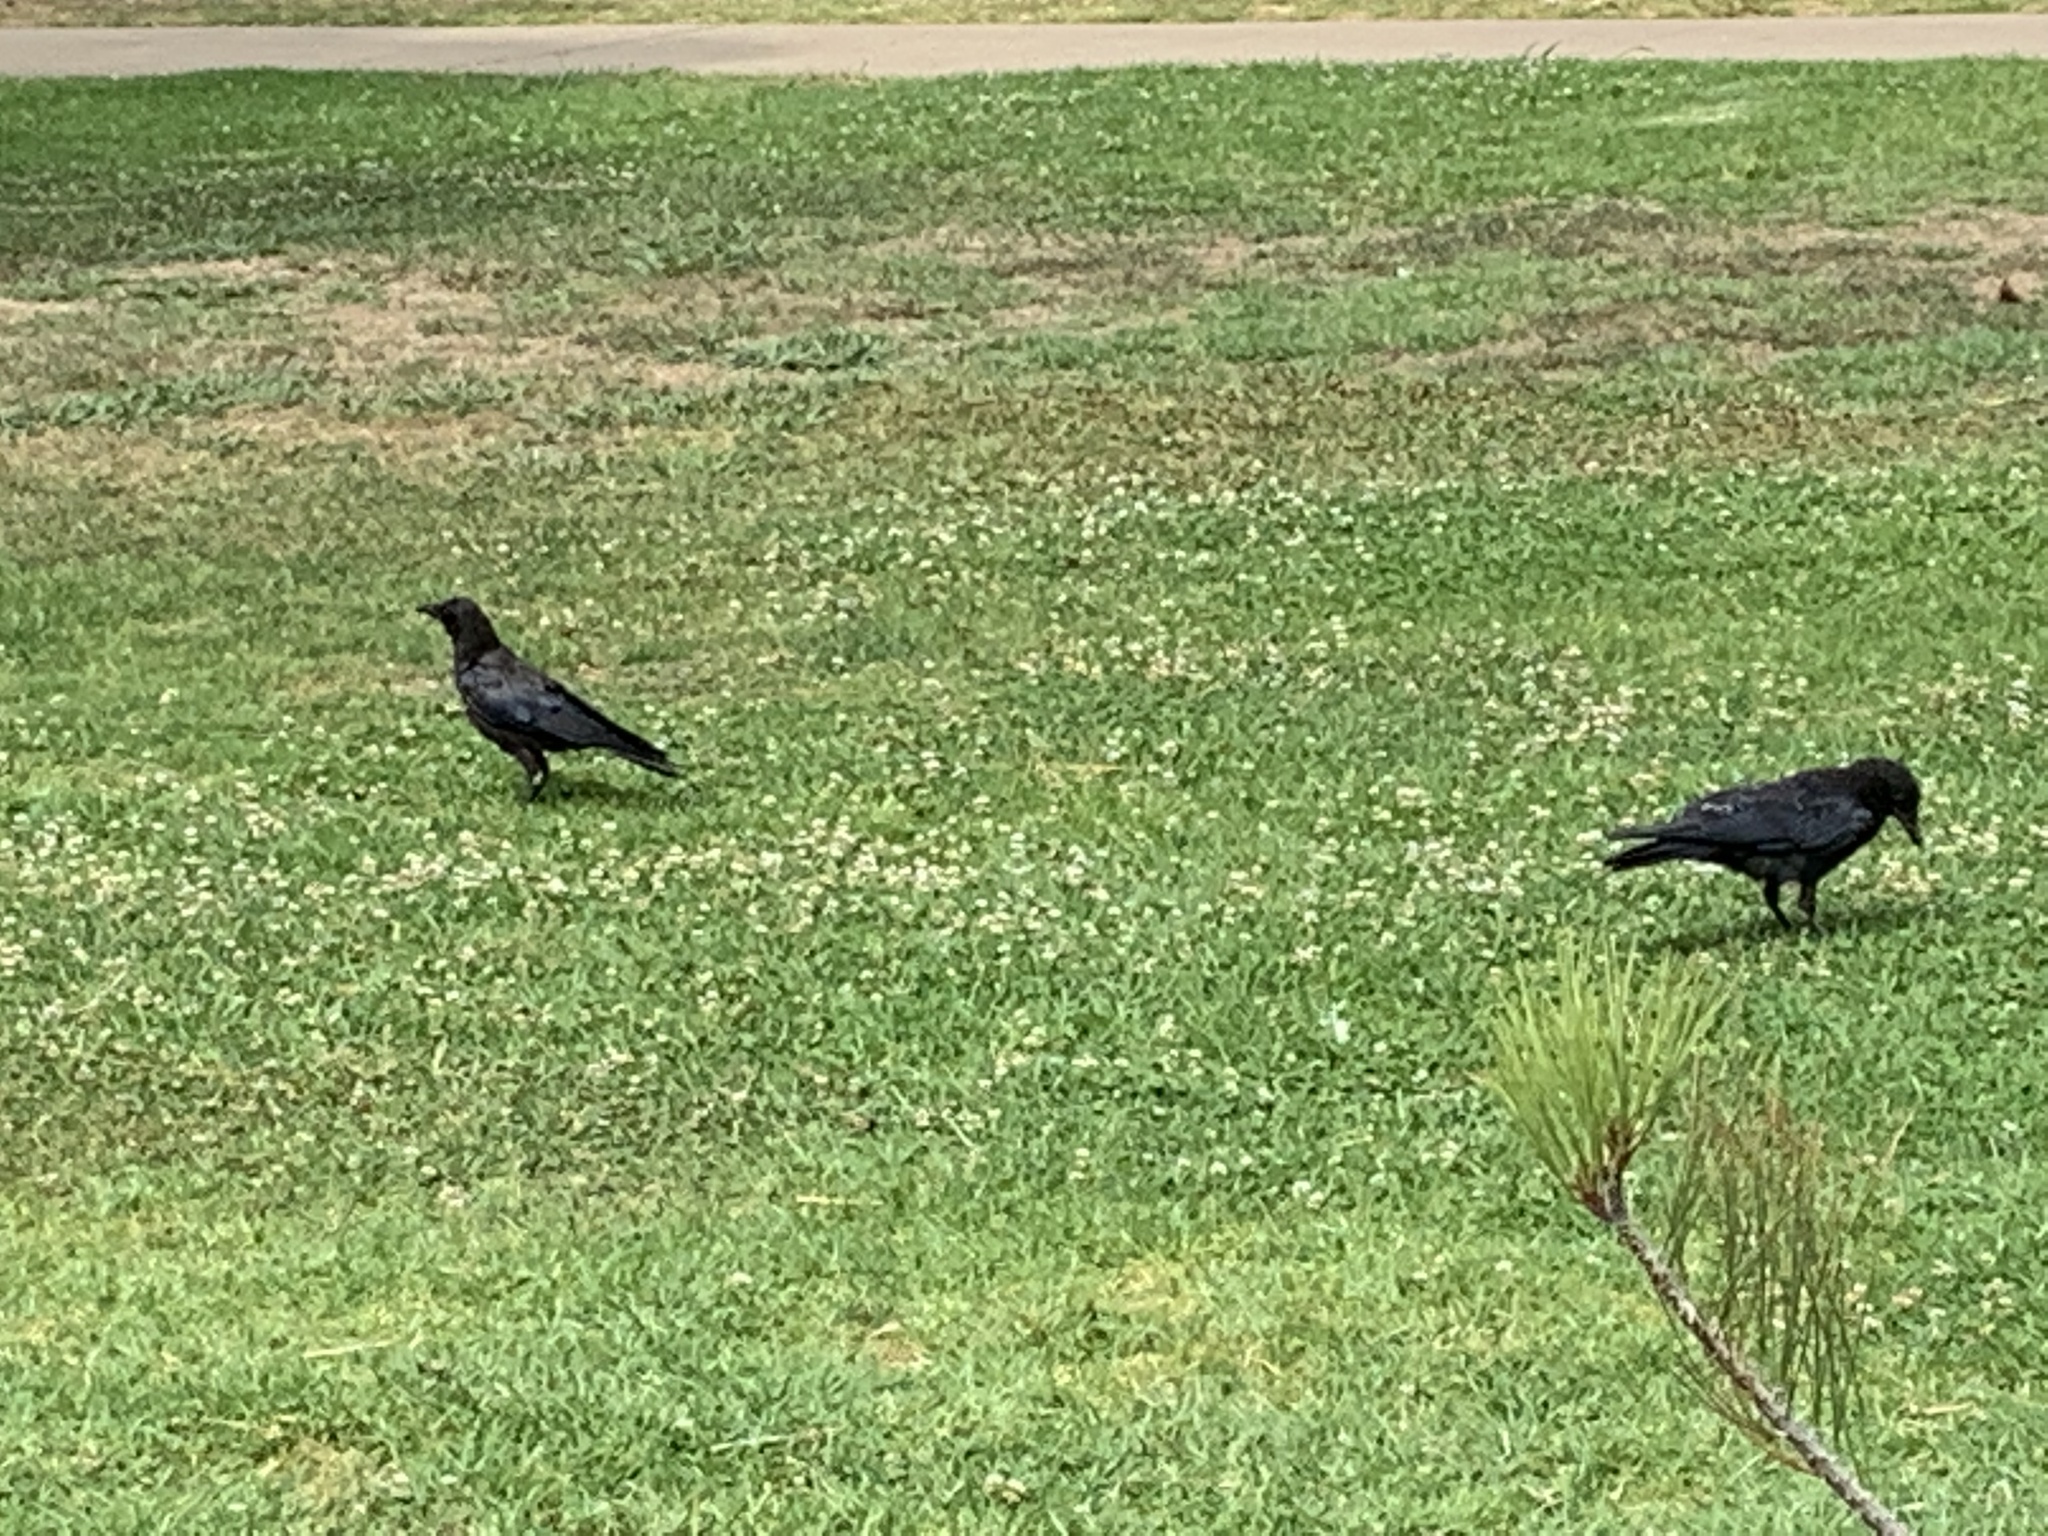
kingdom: Animalia
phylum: Chordata
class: Aves
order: Passeriformes
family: Corvidae
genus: Corvus
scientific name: Corvus brachyrhynchos
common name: American crow
